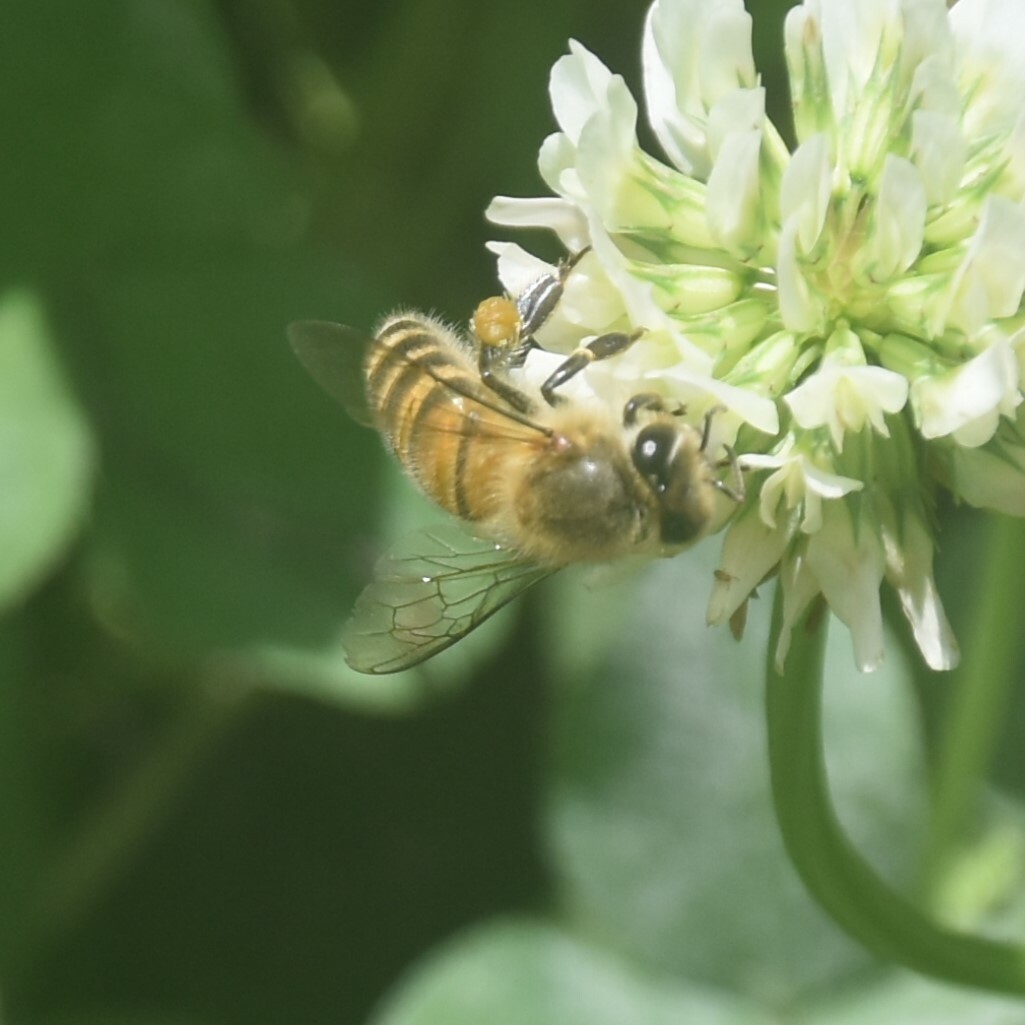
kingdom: Animalia
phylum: Arthropoda
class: Insecta
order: Hymenoptera
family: Apidae
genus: Apis
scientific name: Apis cerana
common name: Honey bee
